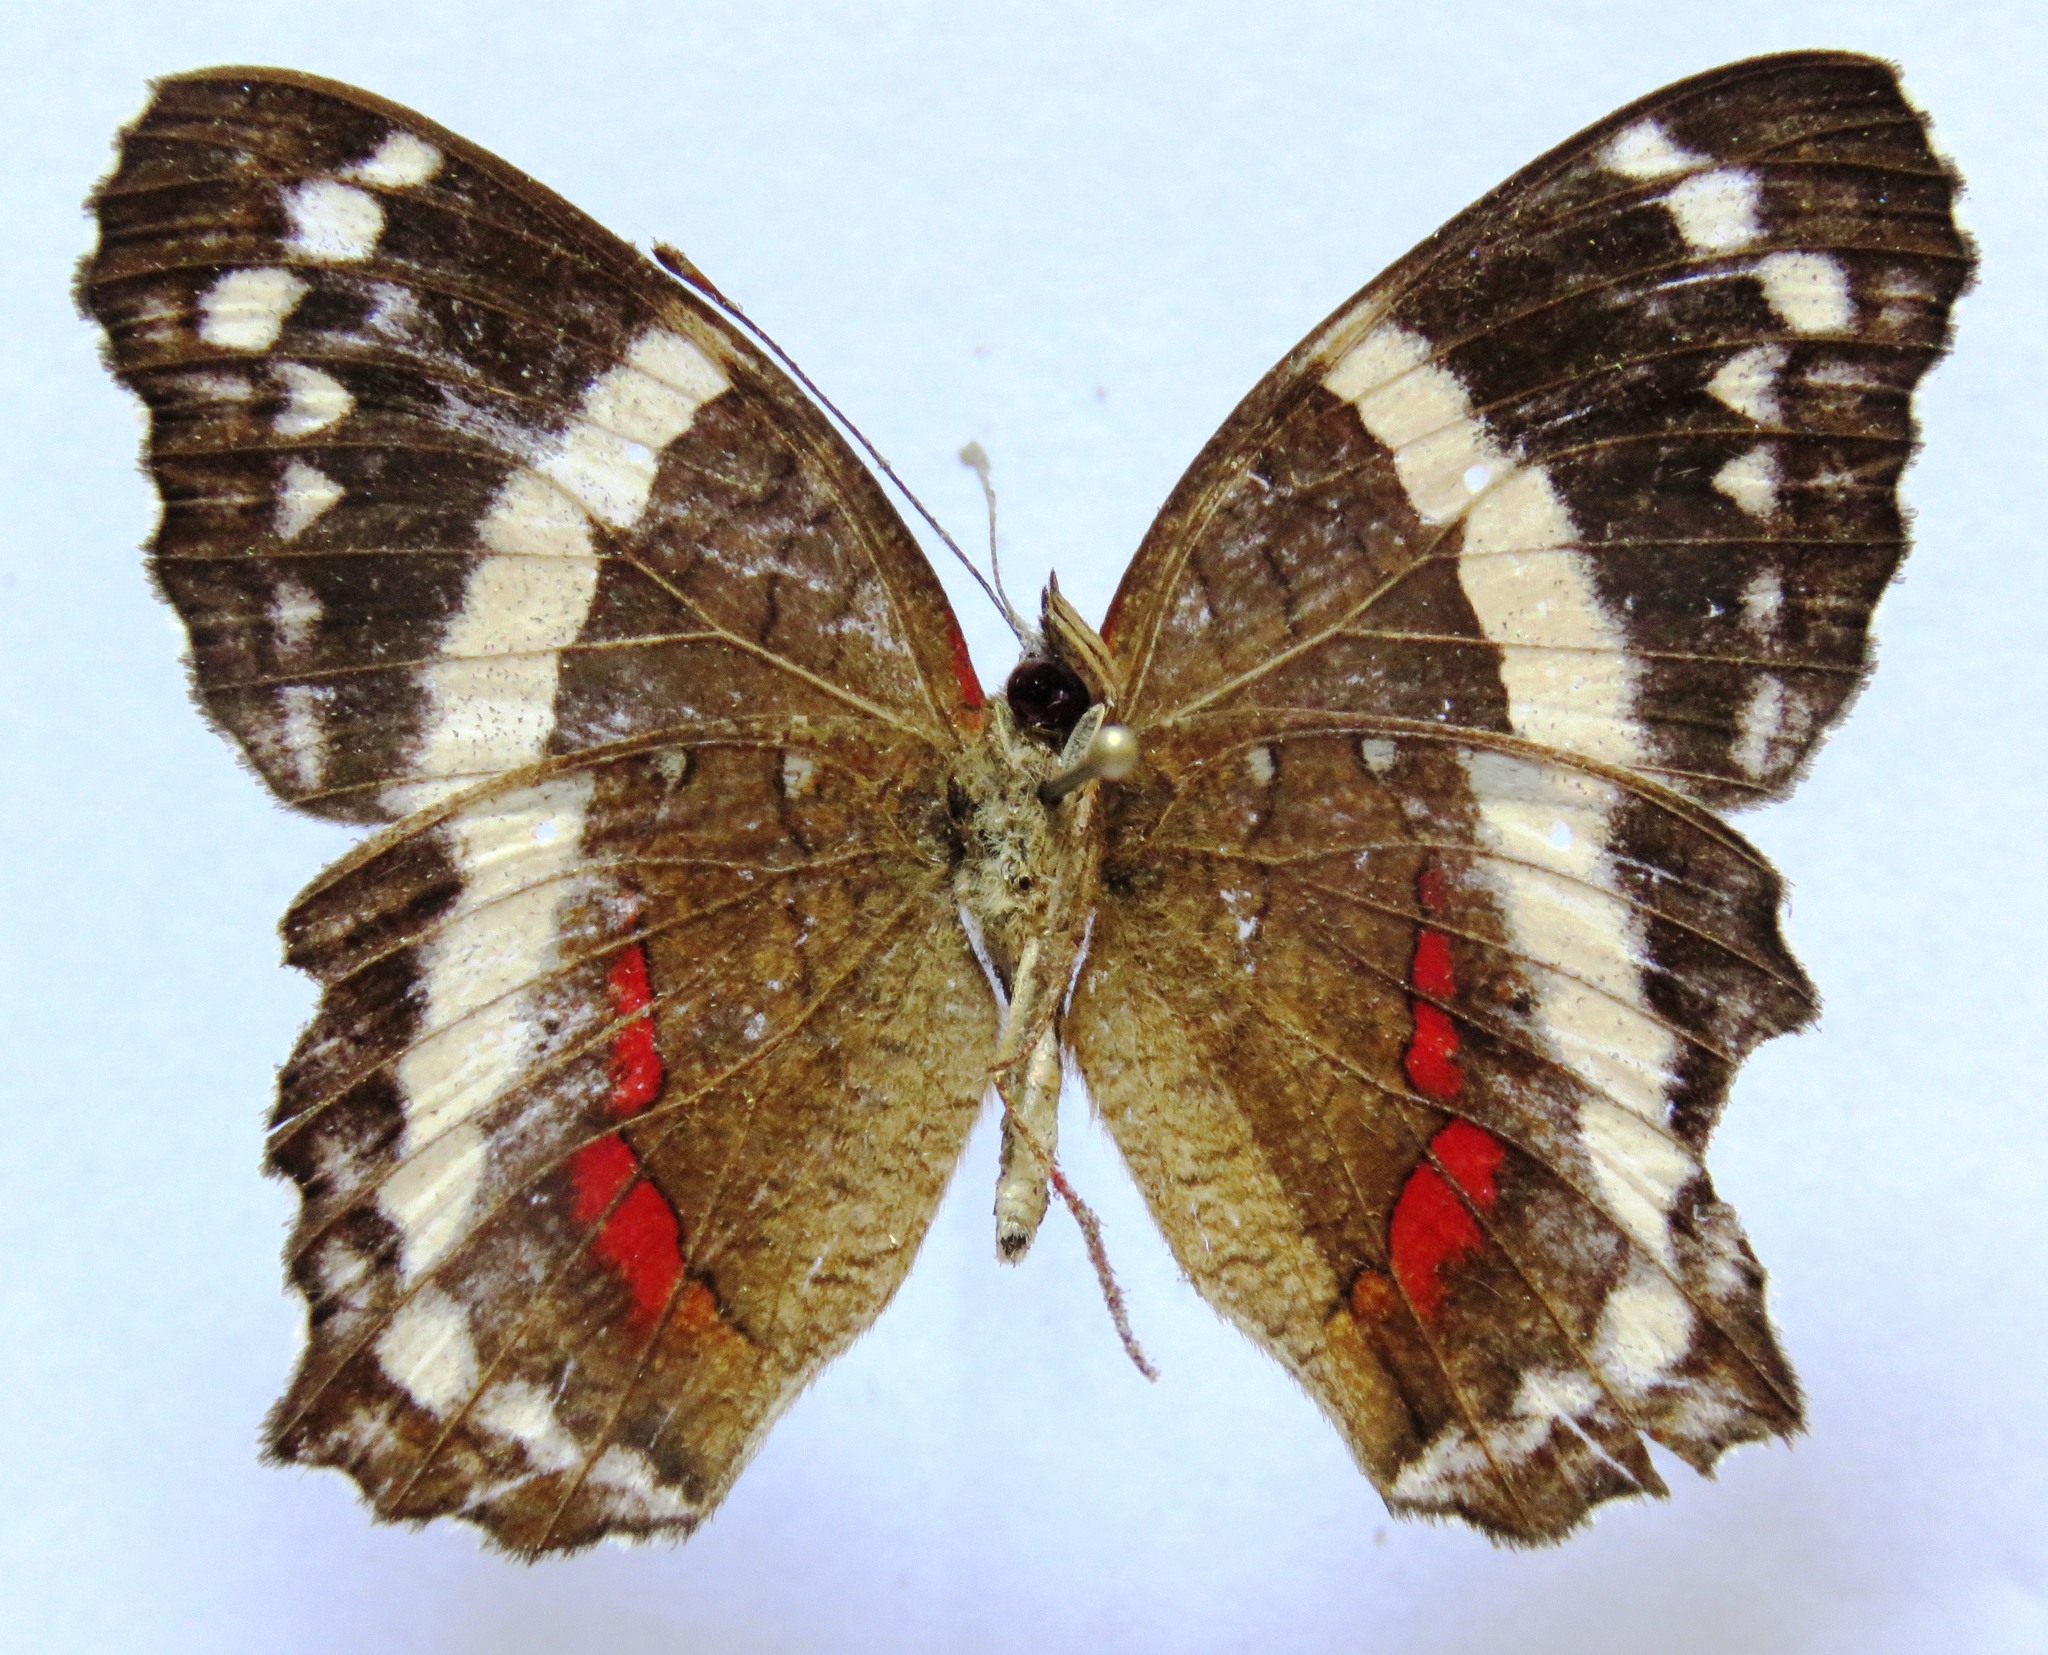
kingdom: Animalia
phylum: Arthropoda
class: Insecta
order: Lepidoptera
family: Nymphalidae
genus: Anartia
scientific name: Anartia fatima
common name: Banded peacock
